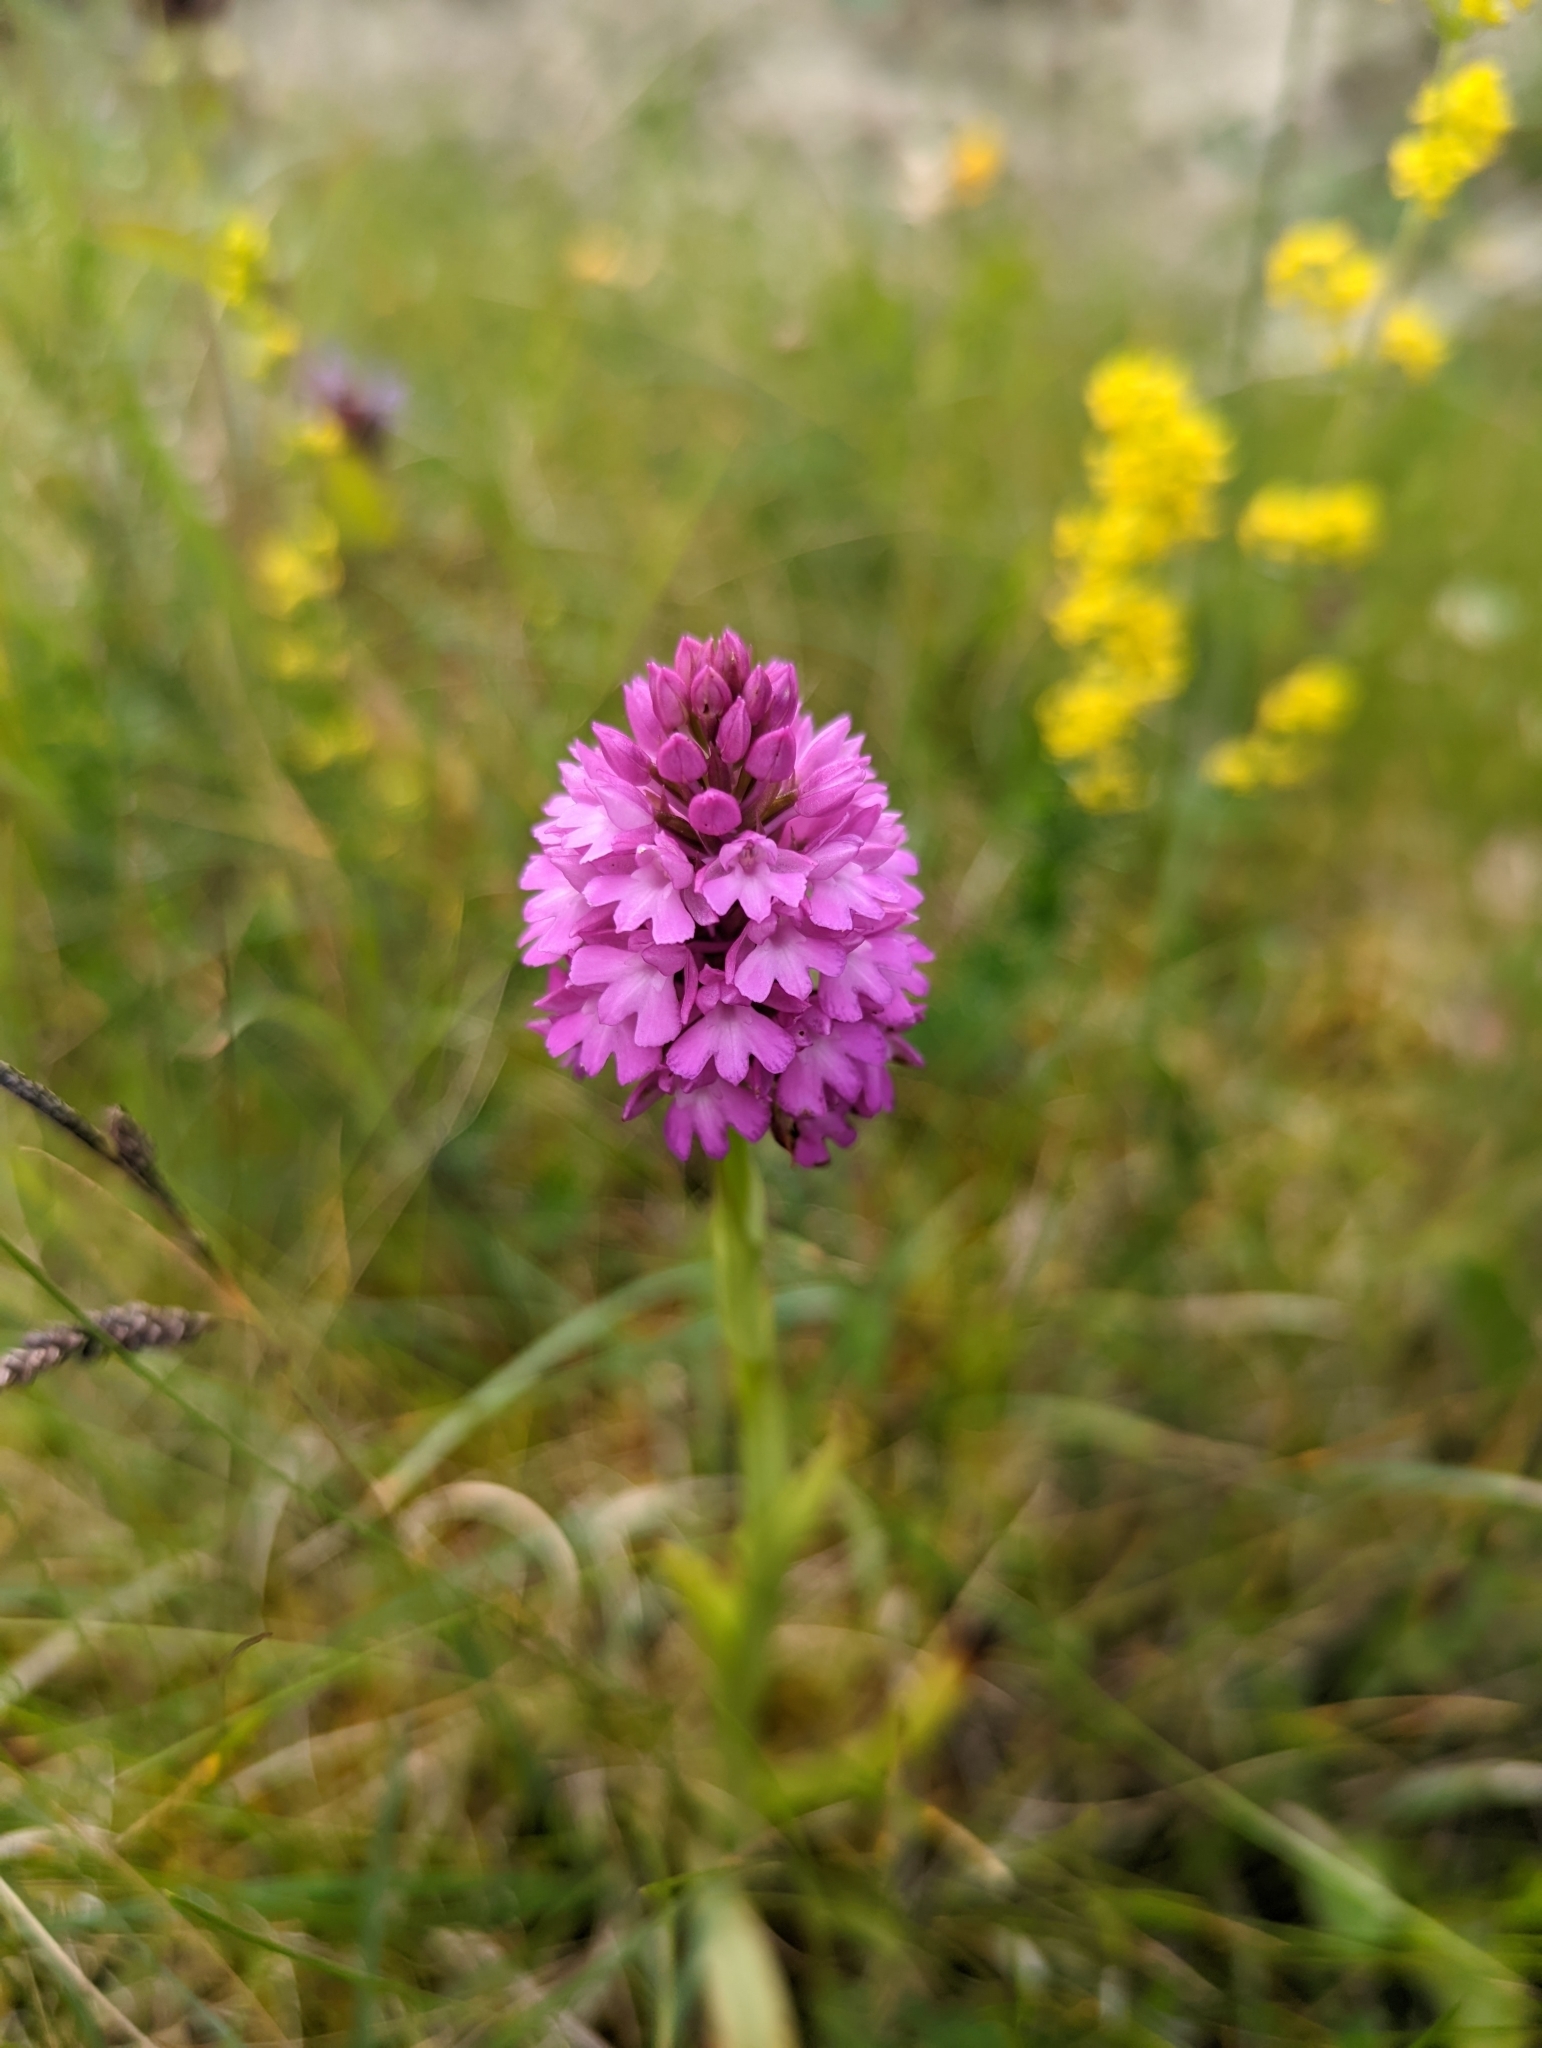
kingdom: Plantae
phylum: Tracheophyta
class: Liliopsida
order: Asparagales
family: Orchidaceae
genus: Anacamptis
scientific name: Anacamptis pyramidalis
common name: Pyramidal orchid
